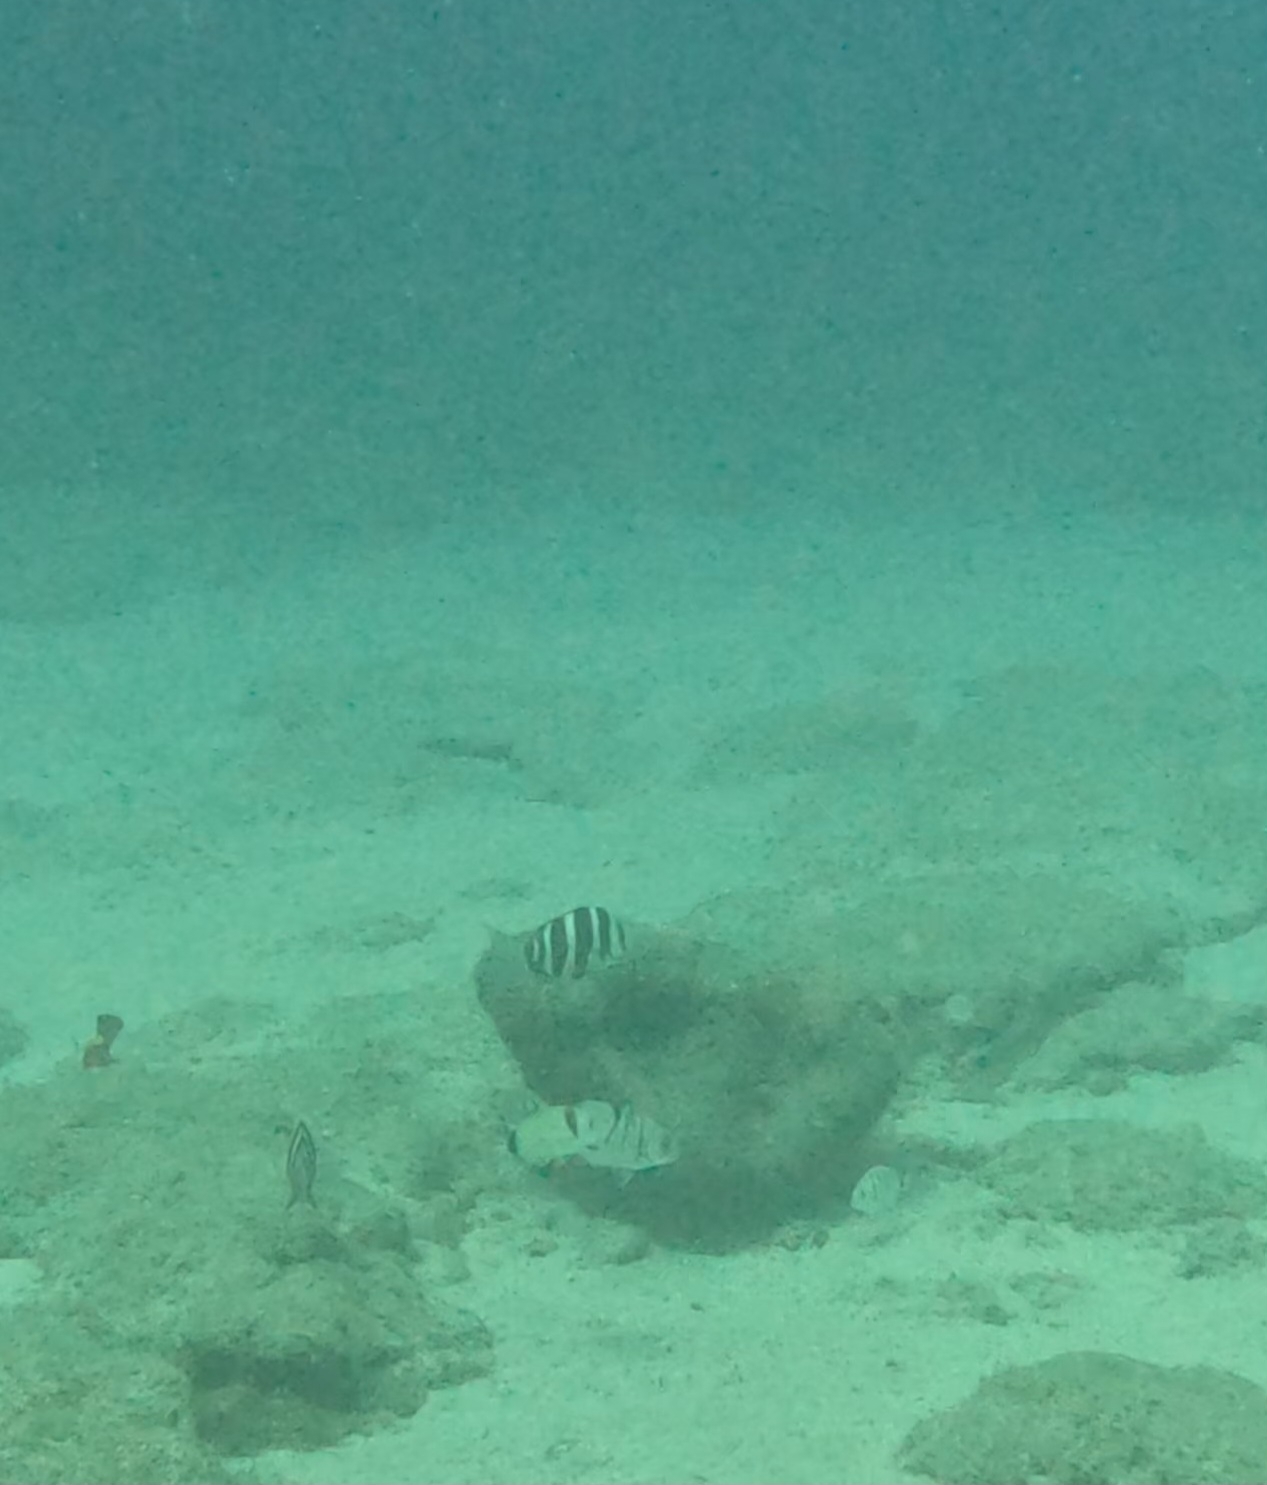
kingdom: Animalia
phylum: Chordata
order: Perciformes
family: Sparidae
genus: Diplodus
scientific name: Diplodus cervinus
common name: Oman porgy
